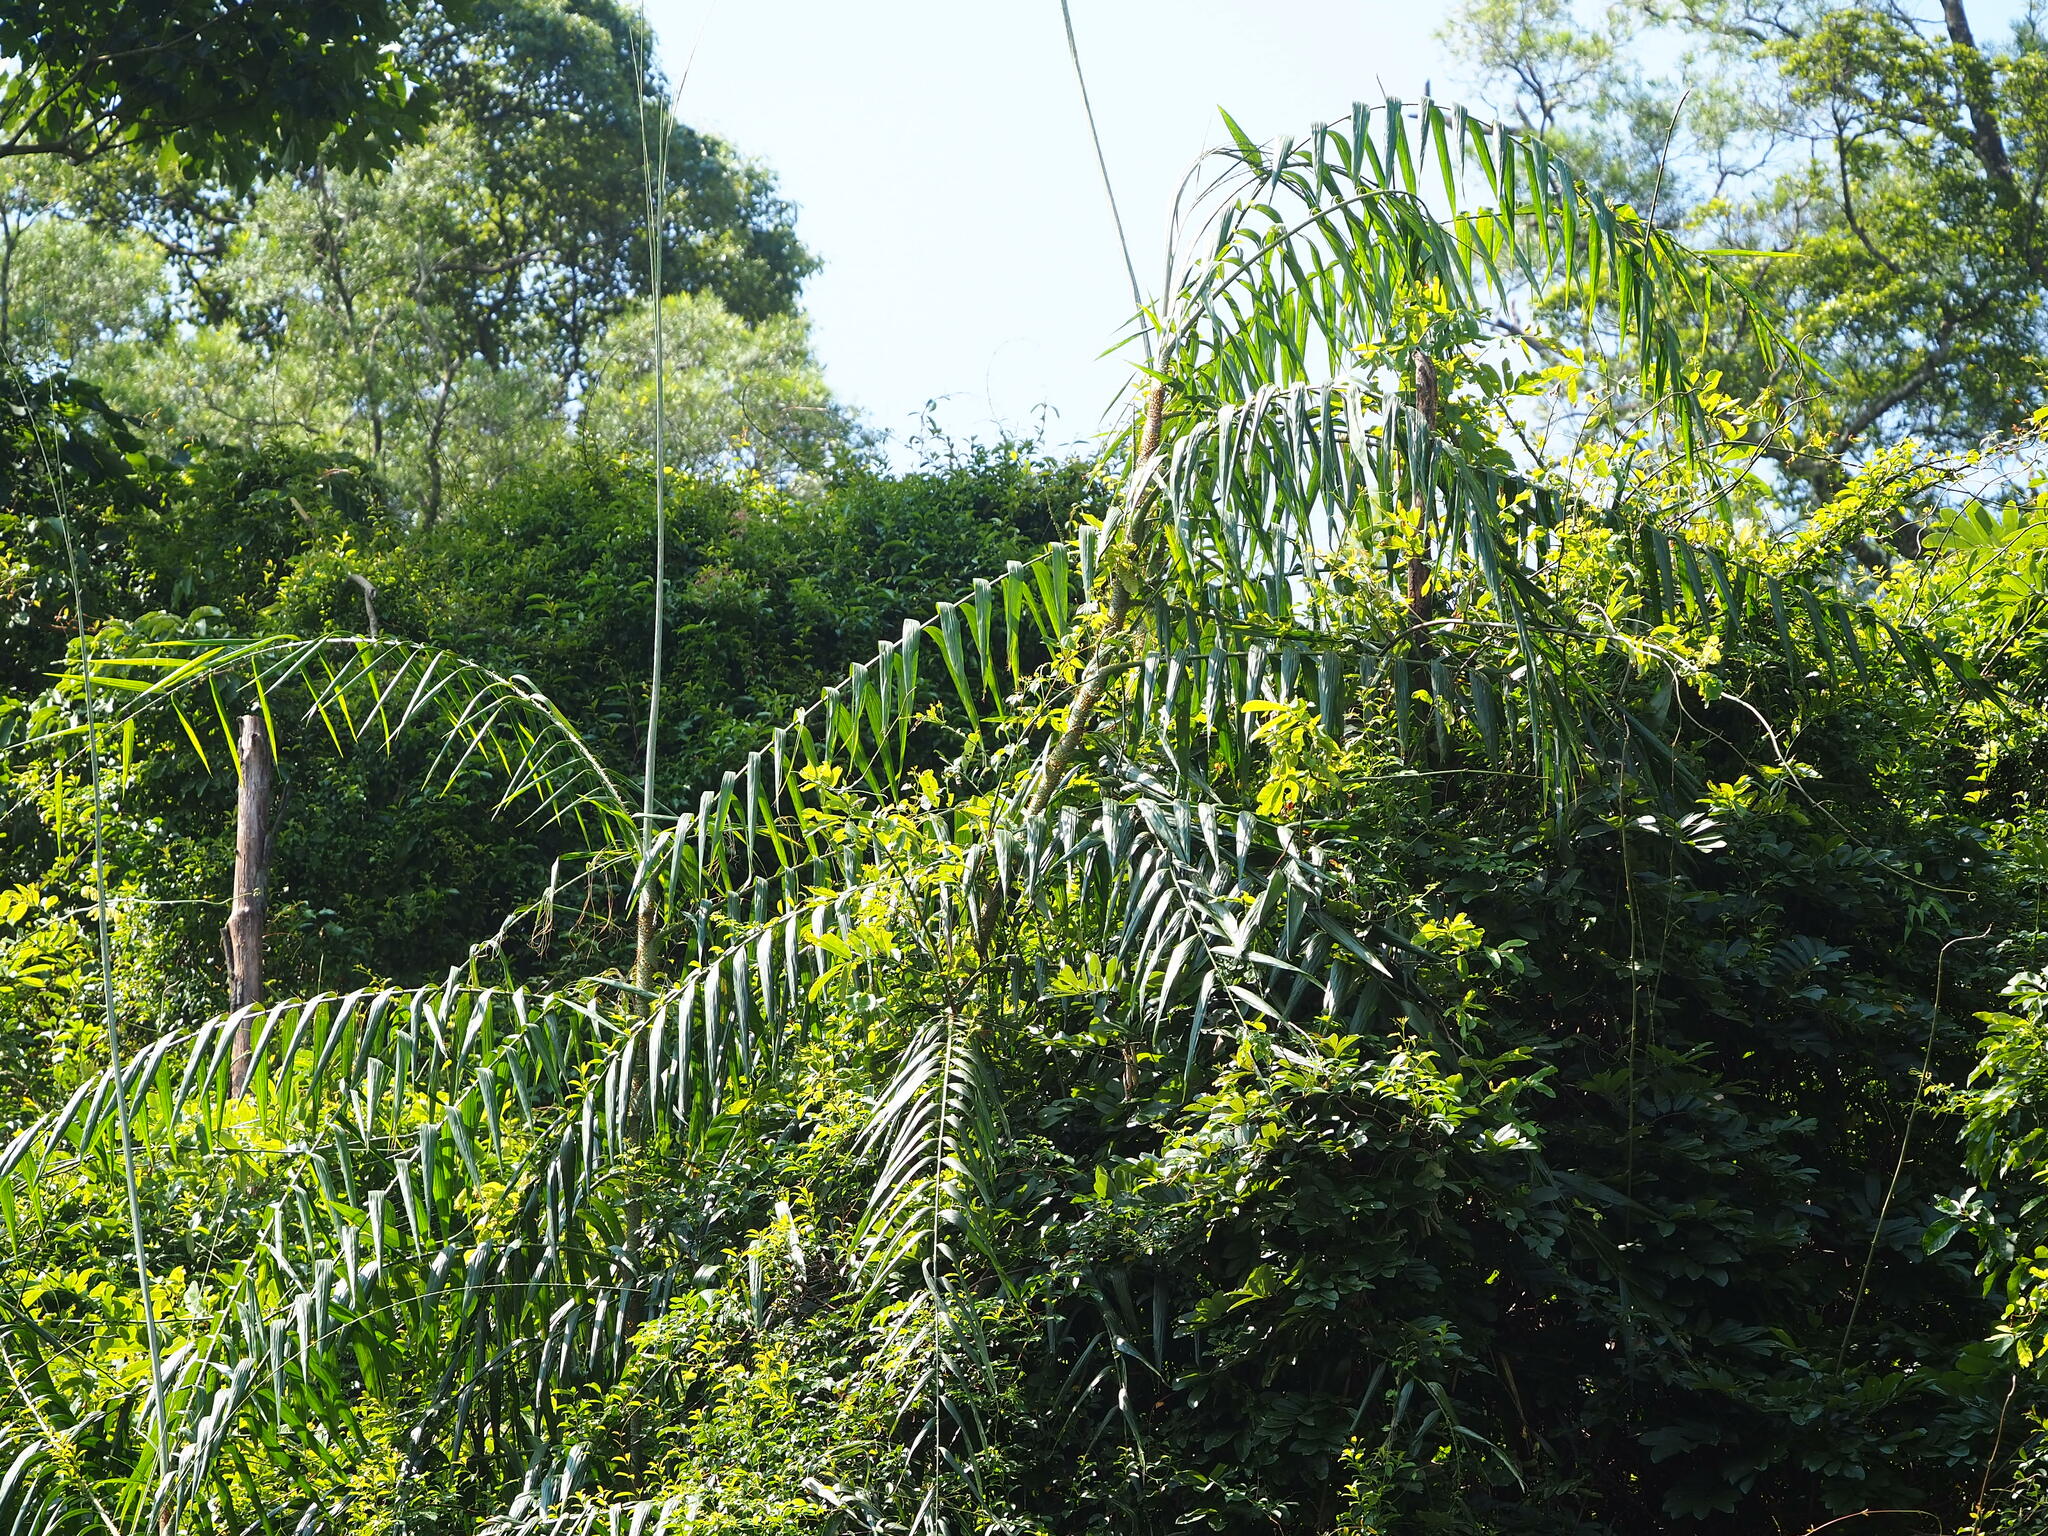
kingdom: Plantae
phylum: Tracheophyta
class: Liliopsida
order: Arecales
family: Arecaceae
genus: Calamus
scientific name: Calamus formosanus
